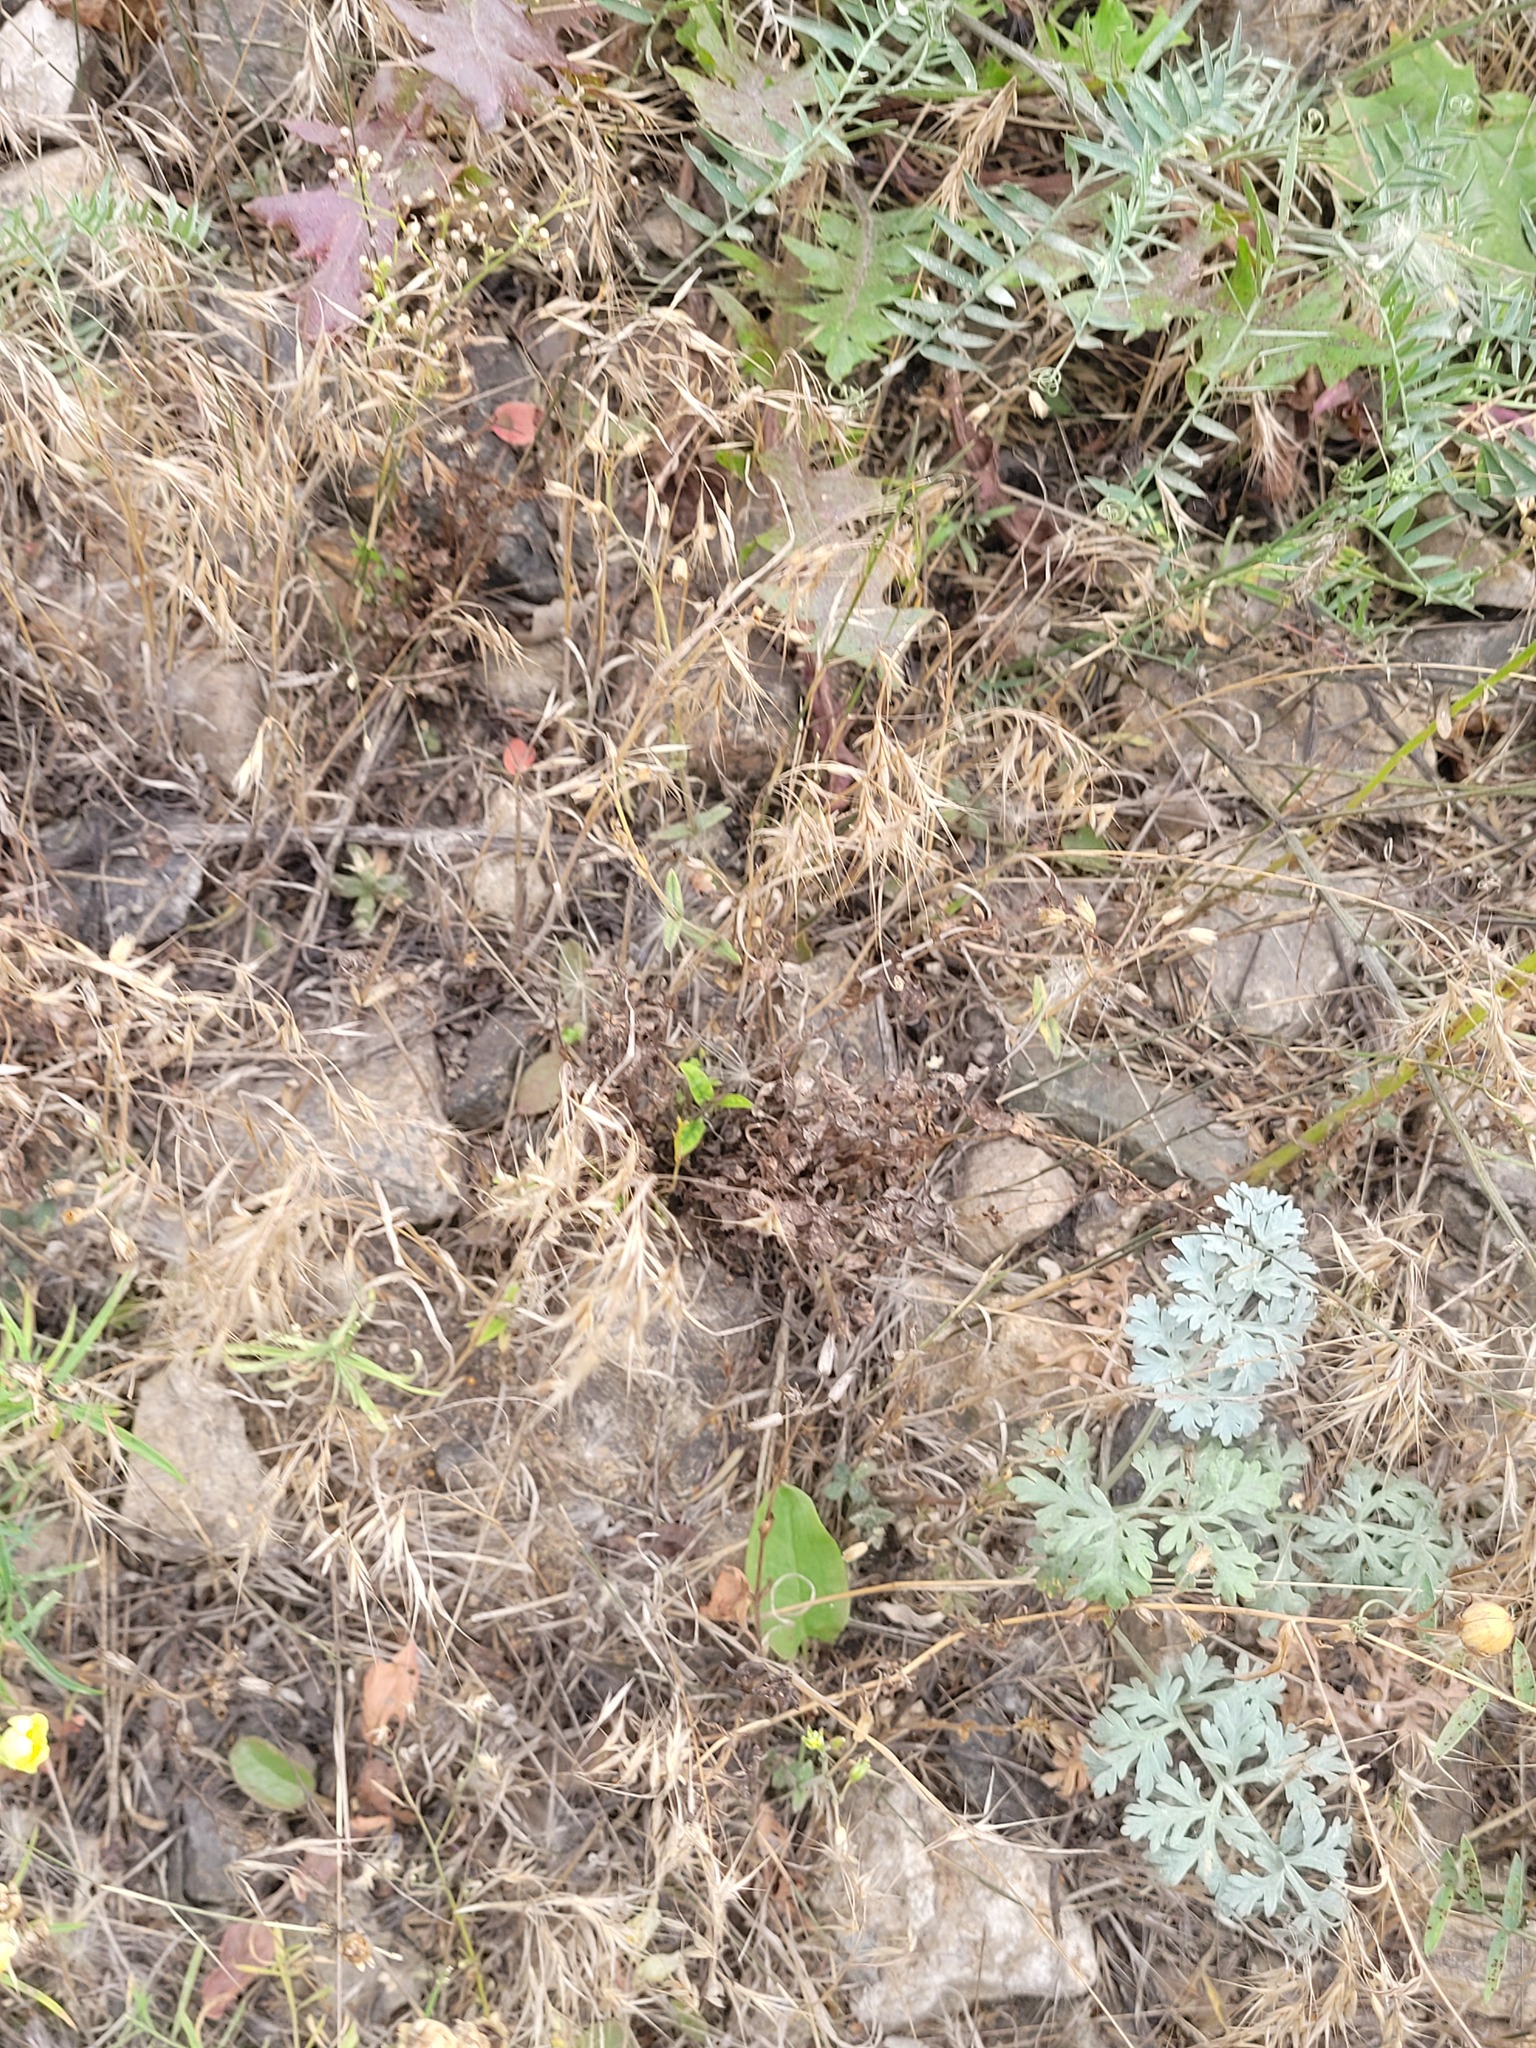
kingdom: Plantae
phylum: Tracheophyta
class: Liliopsida
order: Poales
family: Poaceae
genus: Bromus
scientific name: Bromus tectorum
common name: Cheatgrass
